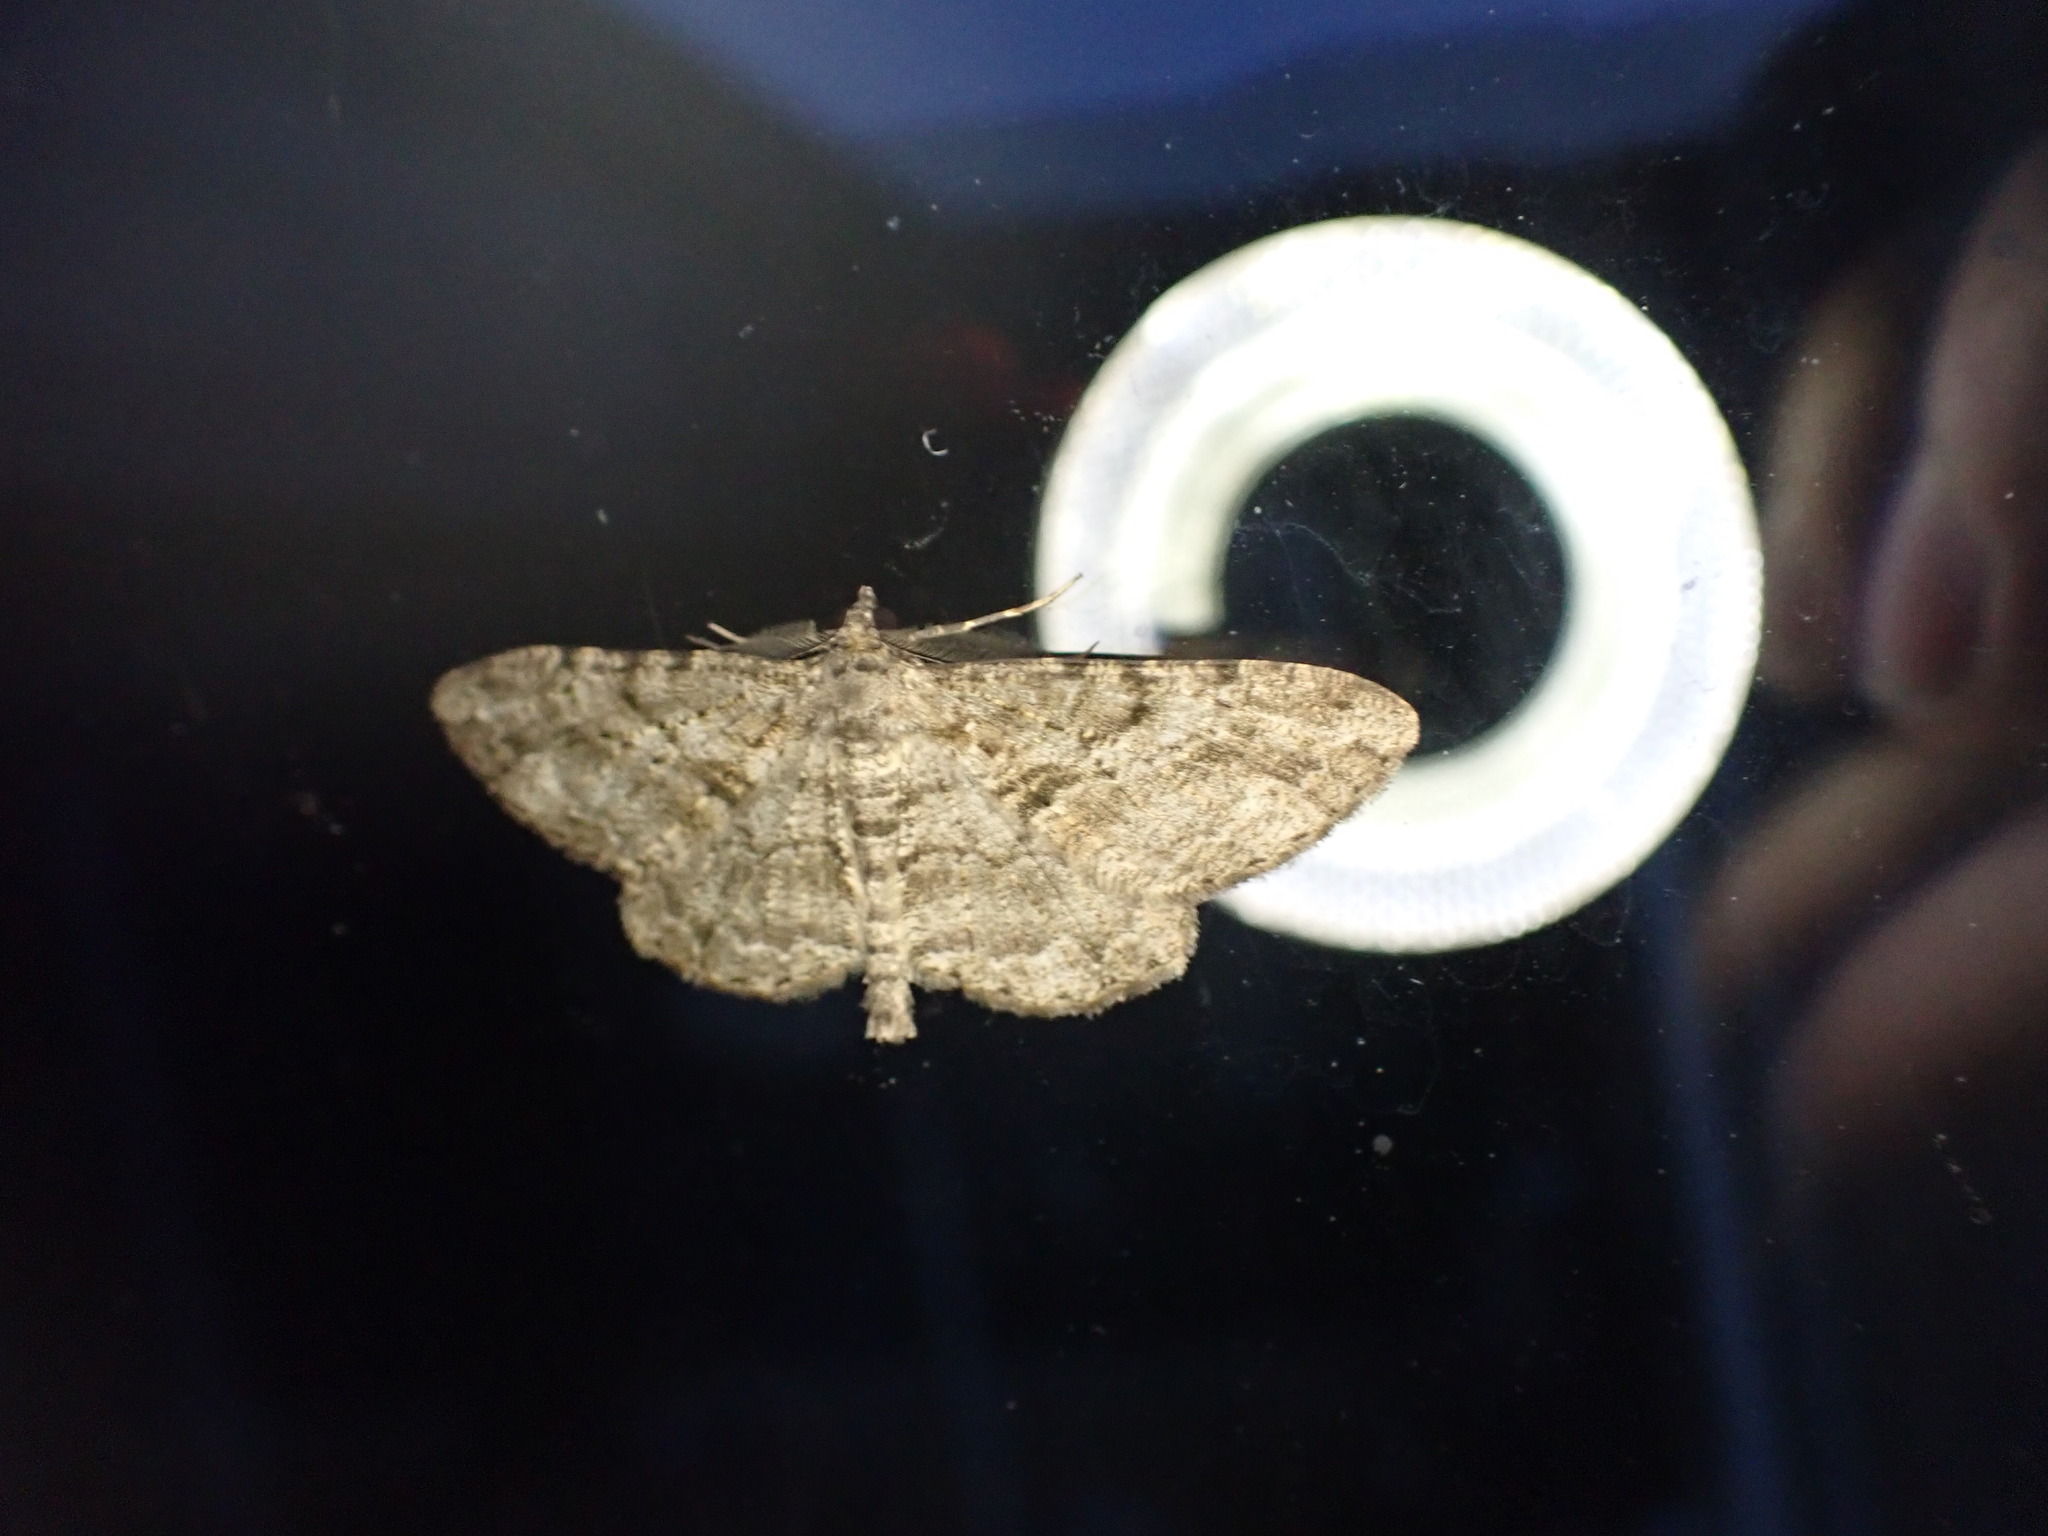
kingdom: Animalia
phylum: Arthropoda
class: Insecta
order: Lepidoptera
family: Geometridae
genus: Peribatodes
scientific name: Peribatodes rhomboidaria
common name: Willow beauty
